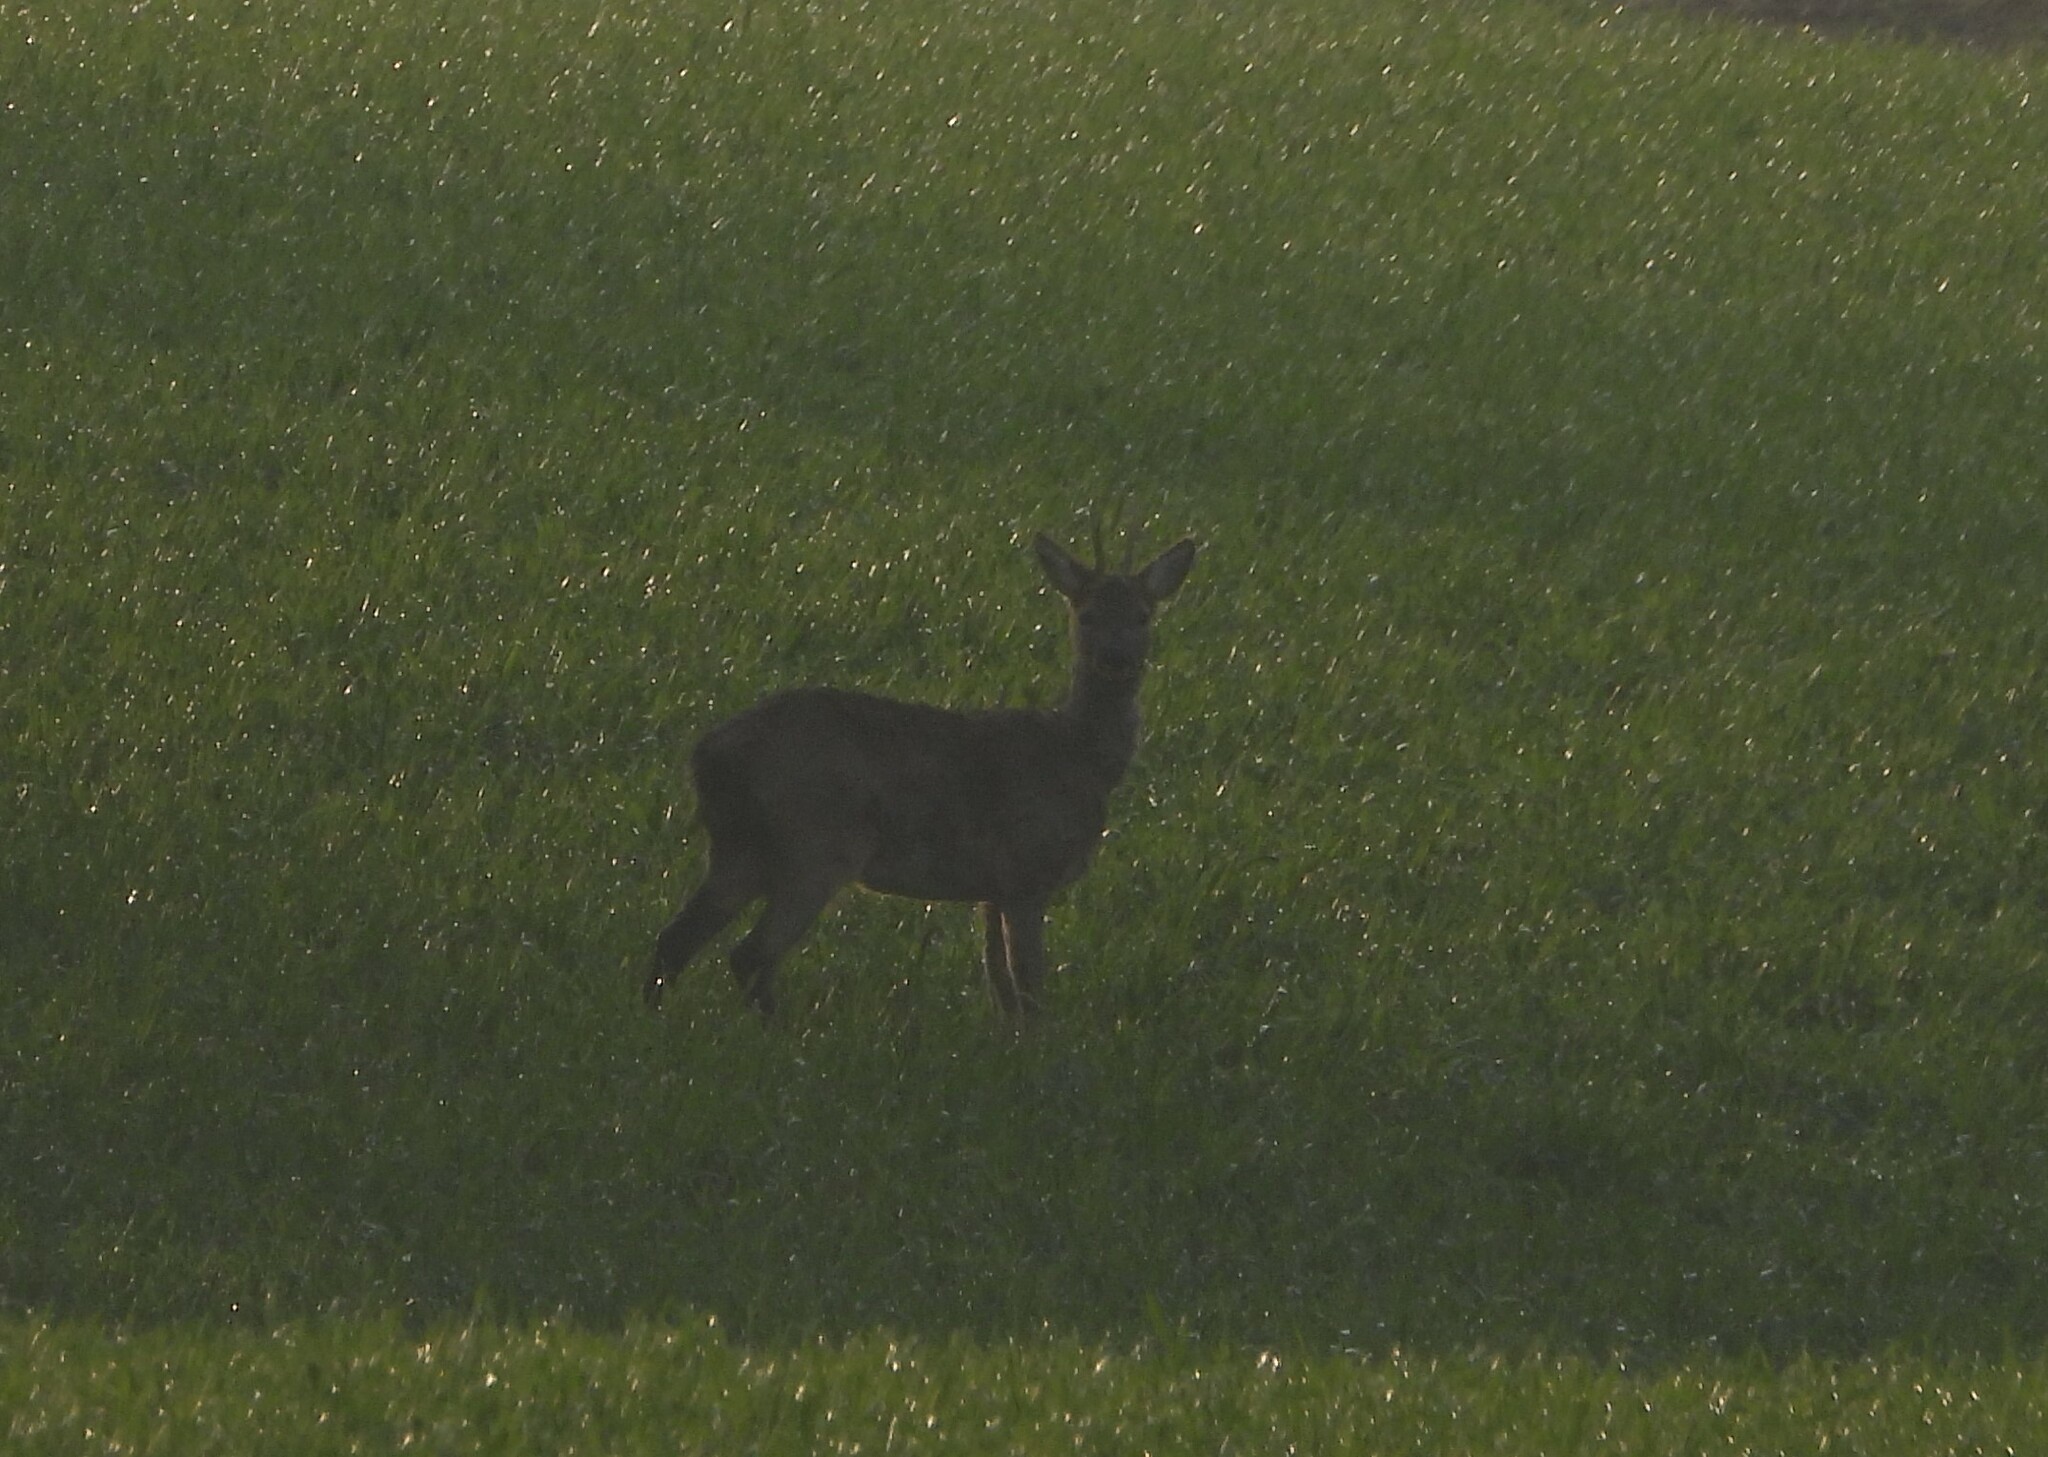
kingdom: Animalia
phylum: Chordata
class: Mammalia
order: Artiodactyla
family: Cervidae
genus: Capreolus
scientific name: Capreolus capreolus
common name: Western roe deer
